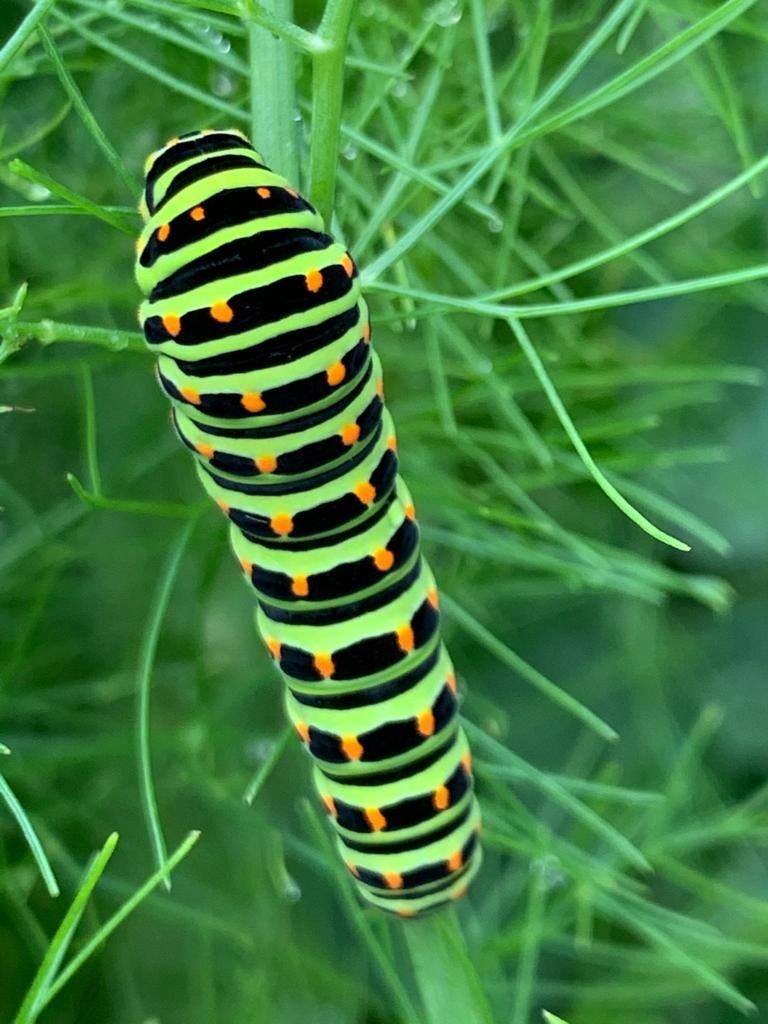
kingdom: Animalia
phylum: Arthropoda
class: Insecta
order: Lepidoptera
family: Papilionidae
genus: Papilio
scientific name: Papilio machaon
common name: Swallowtail
